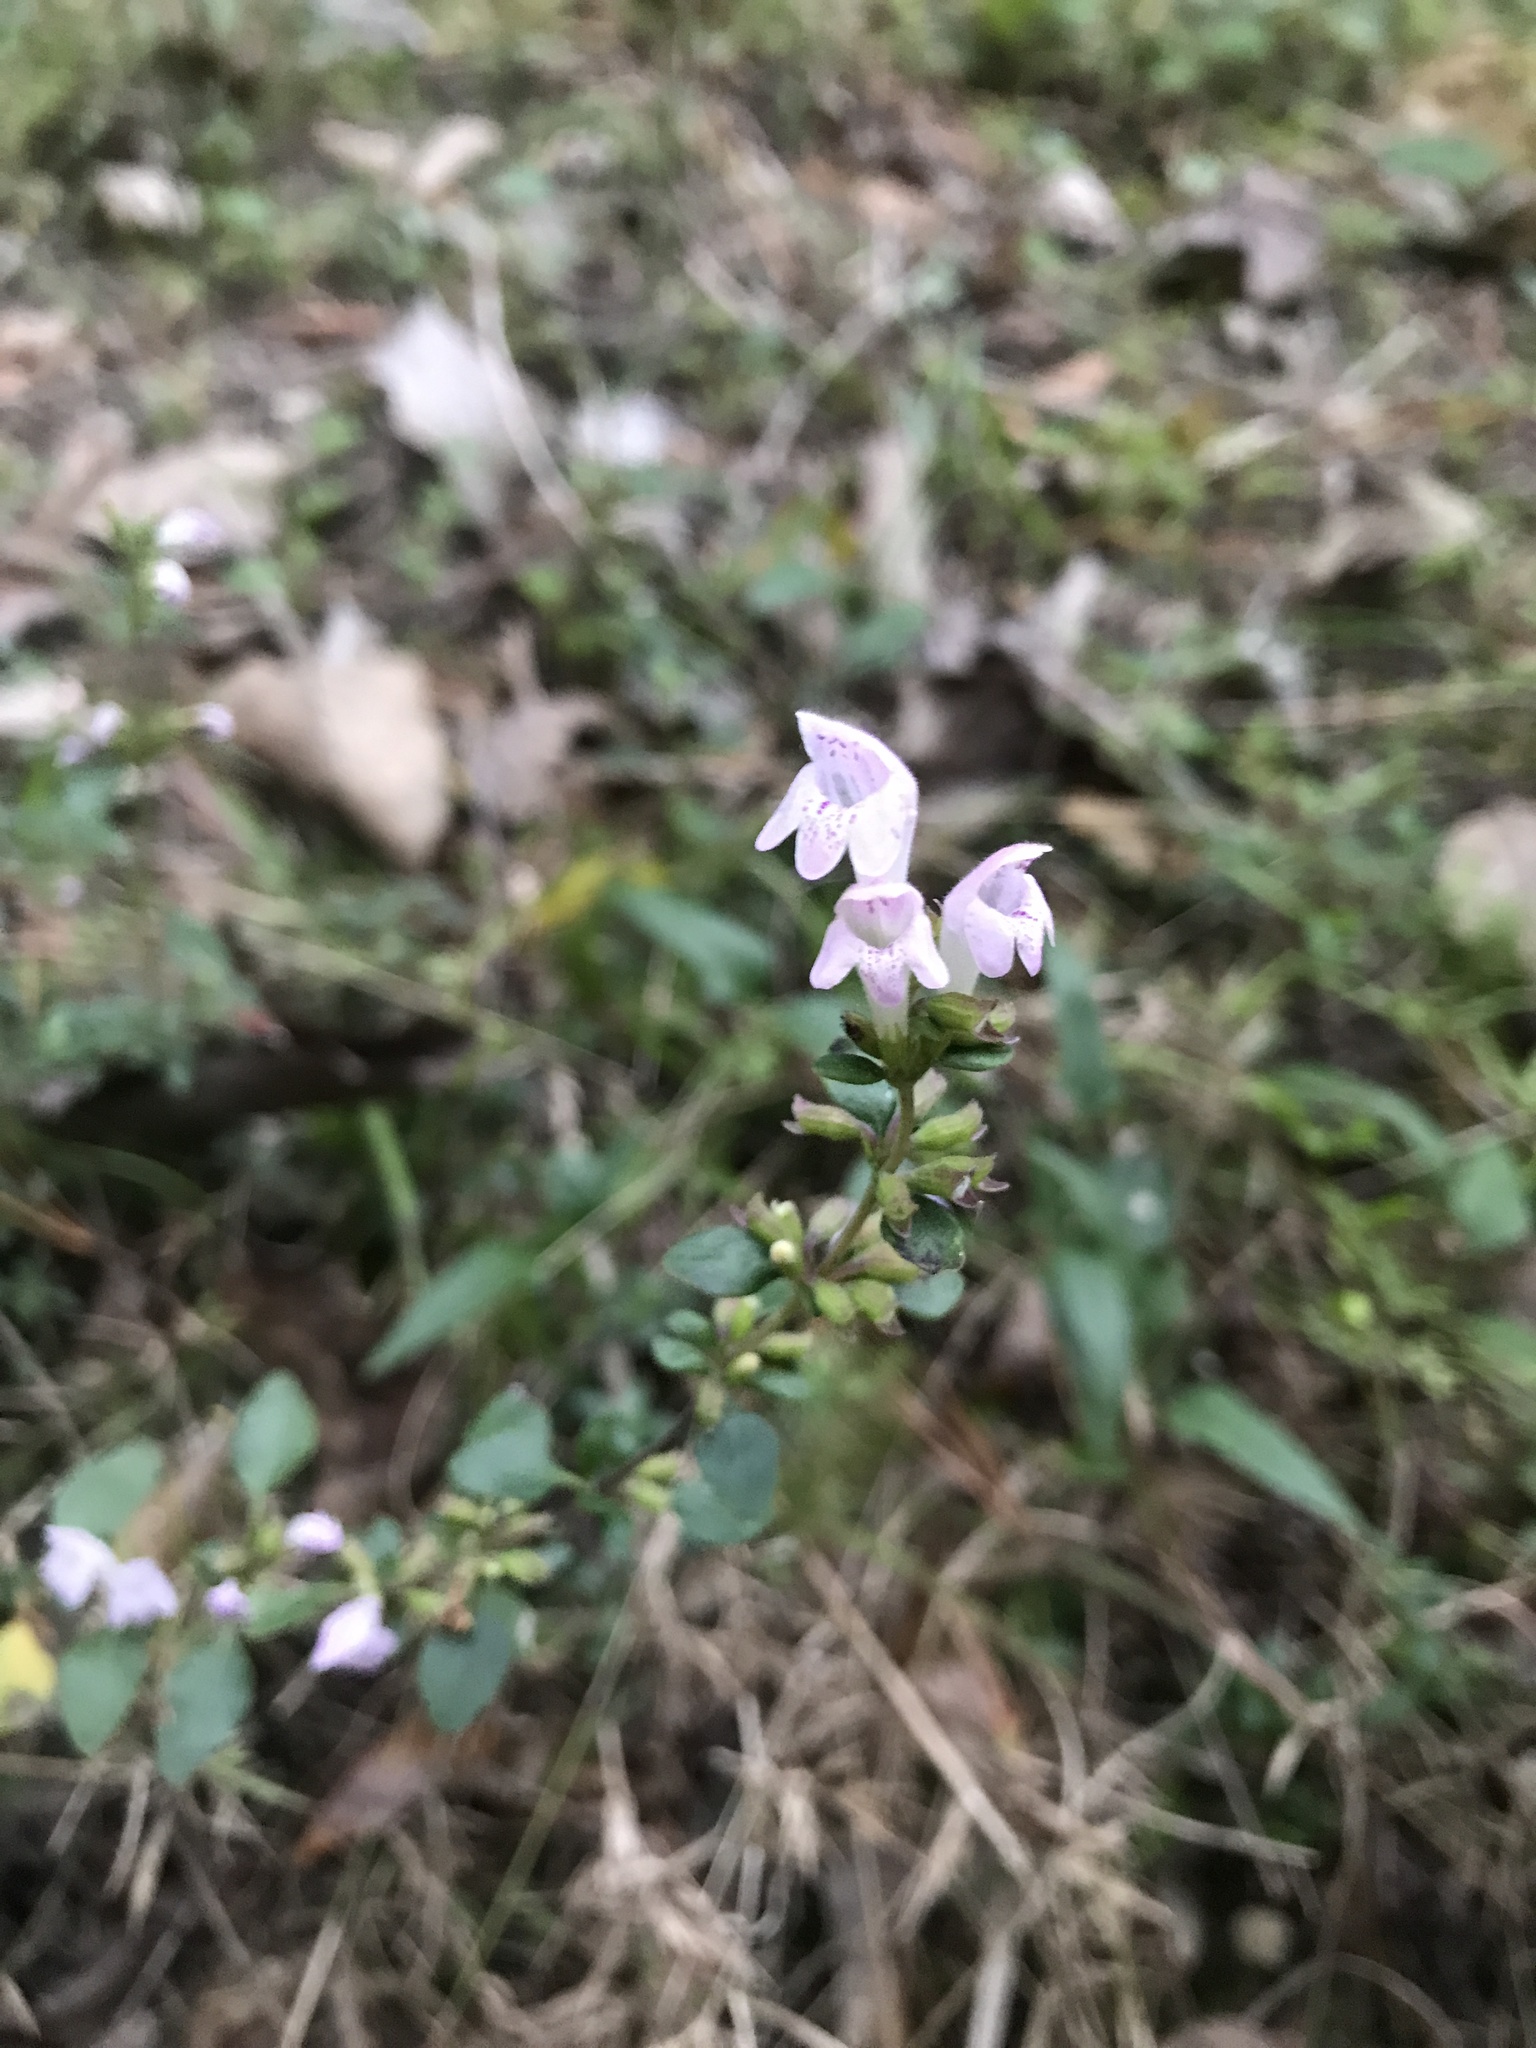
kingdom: Plantae
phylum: Tracheophyta
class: Magnoliopsida
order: Lamiales
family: Lamiaceae
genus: Clinopodium
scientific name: Clinopodium carolinianum
